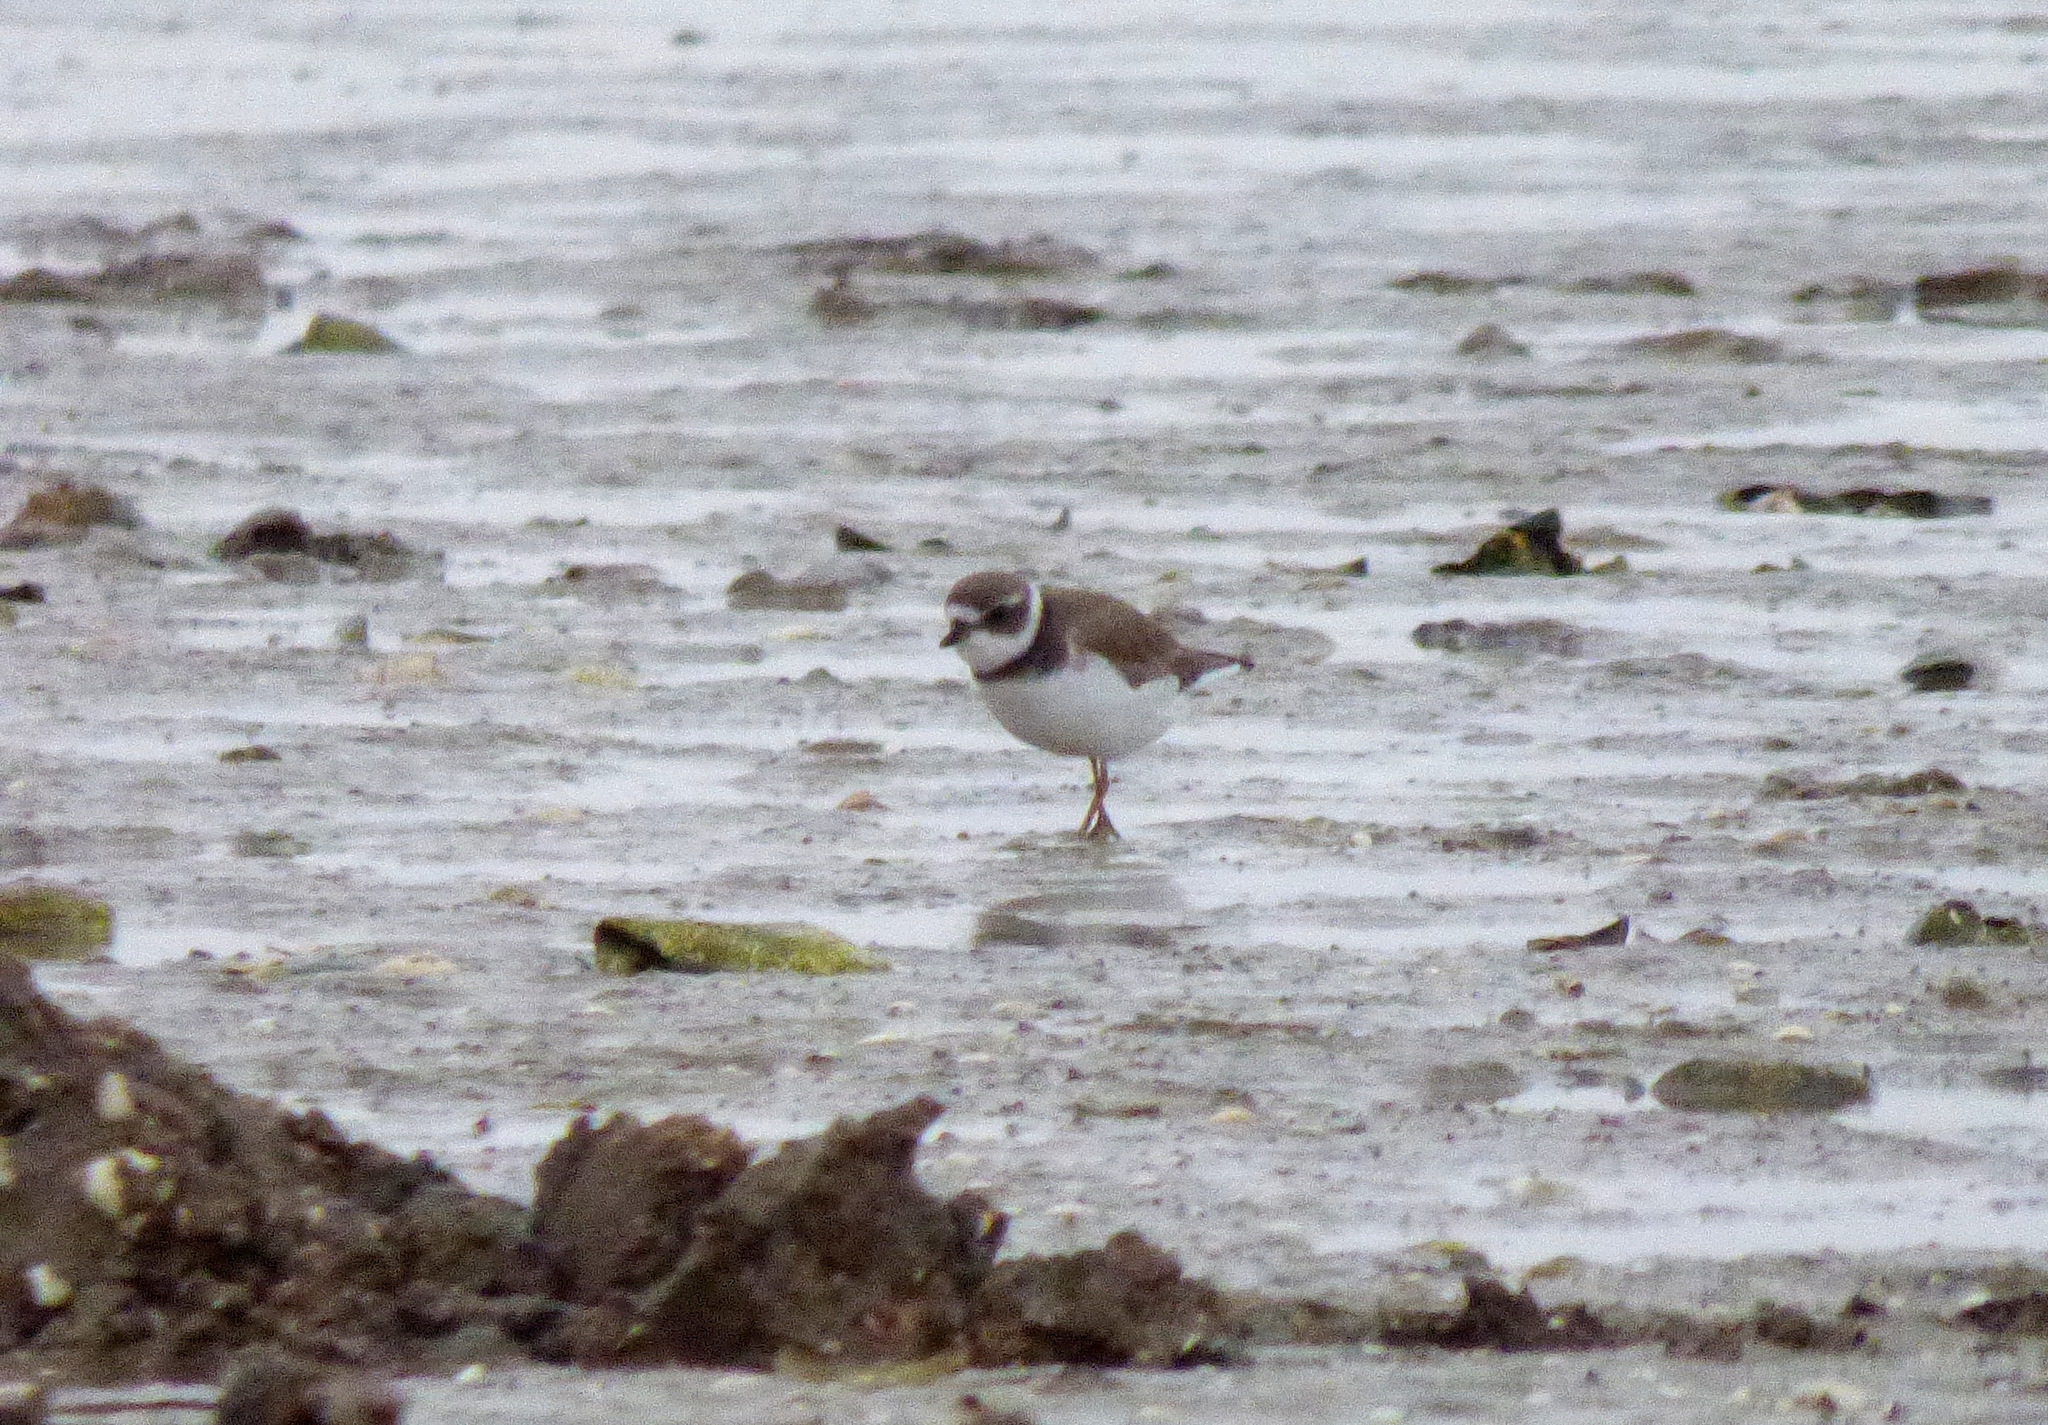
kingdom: Animalia
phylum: Chordata
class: Aves
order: Charadriiformes
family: Charadriidae
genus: Charadrius
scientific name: Charadrius semipalmatus
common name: Semipalmated plover
